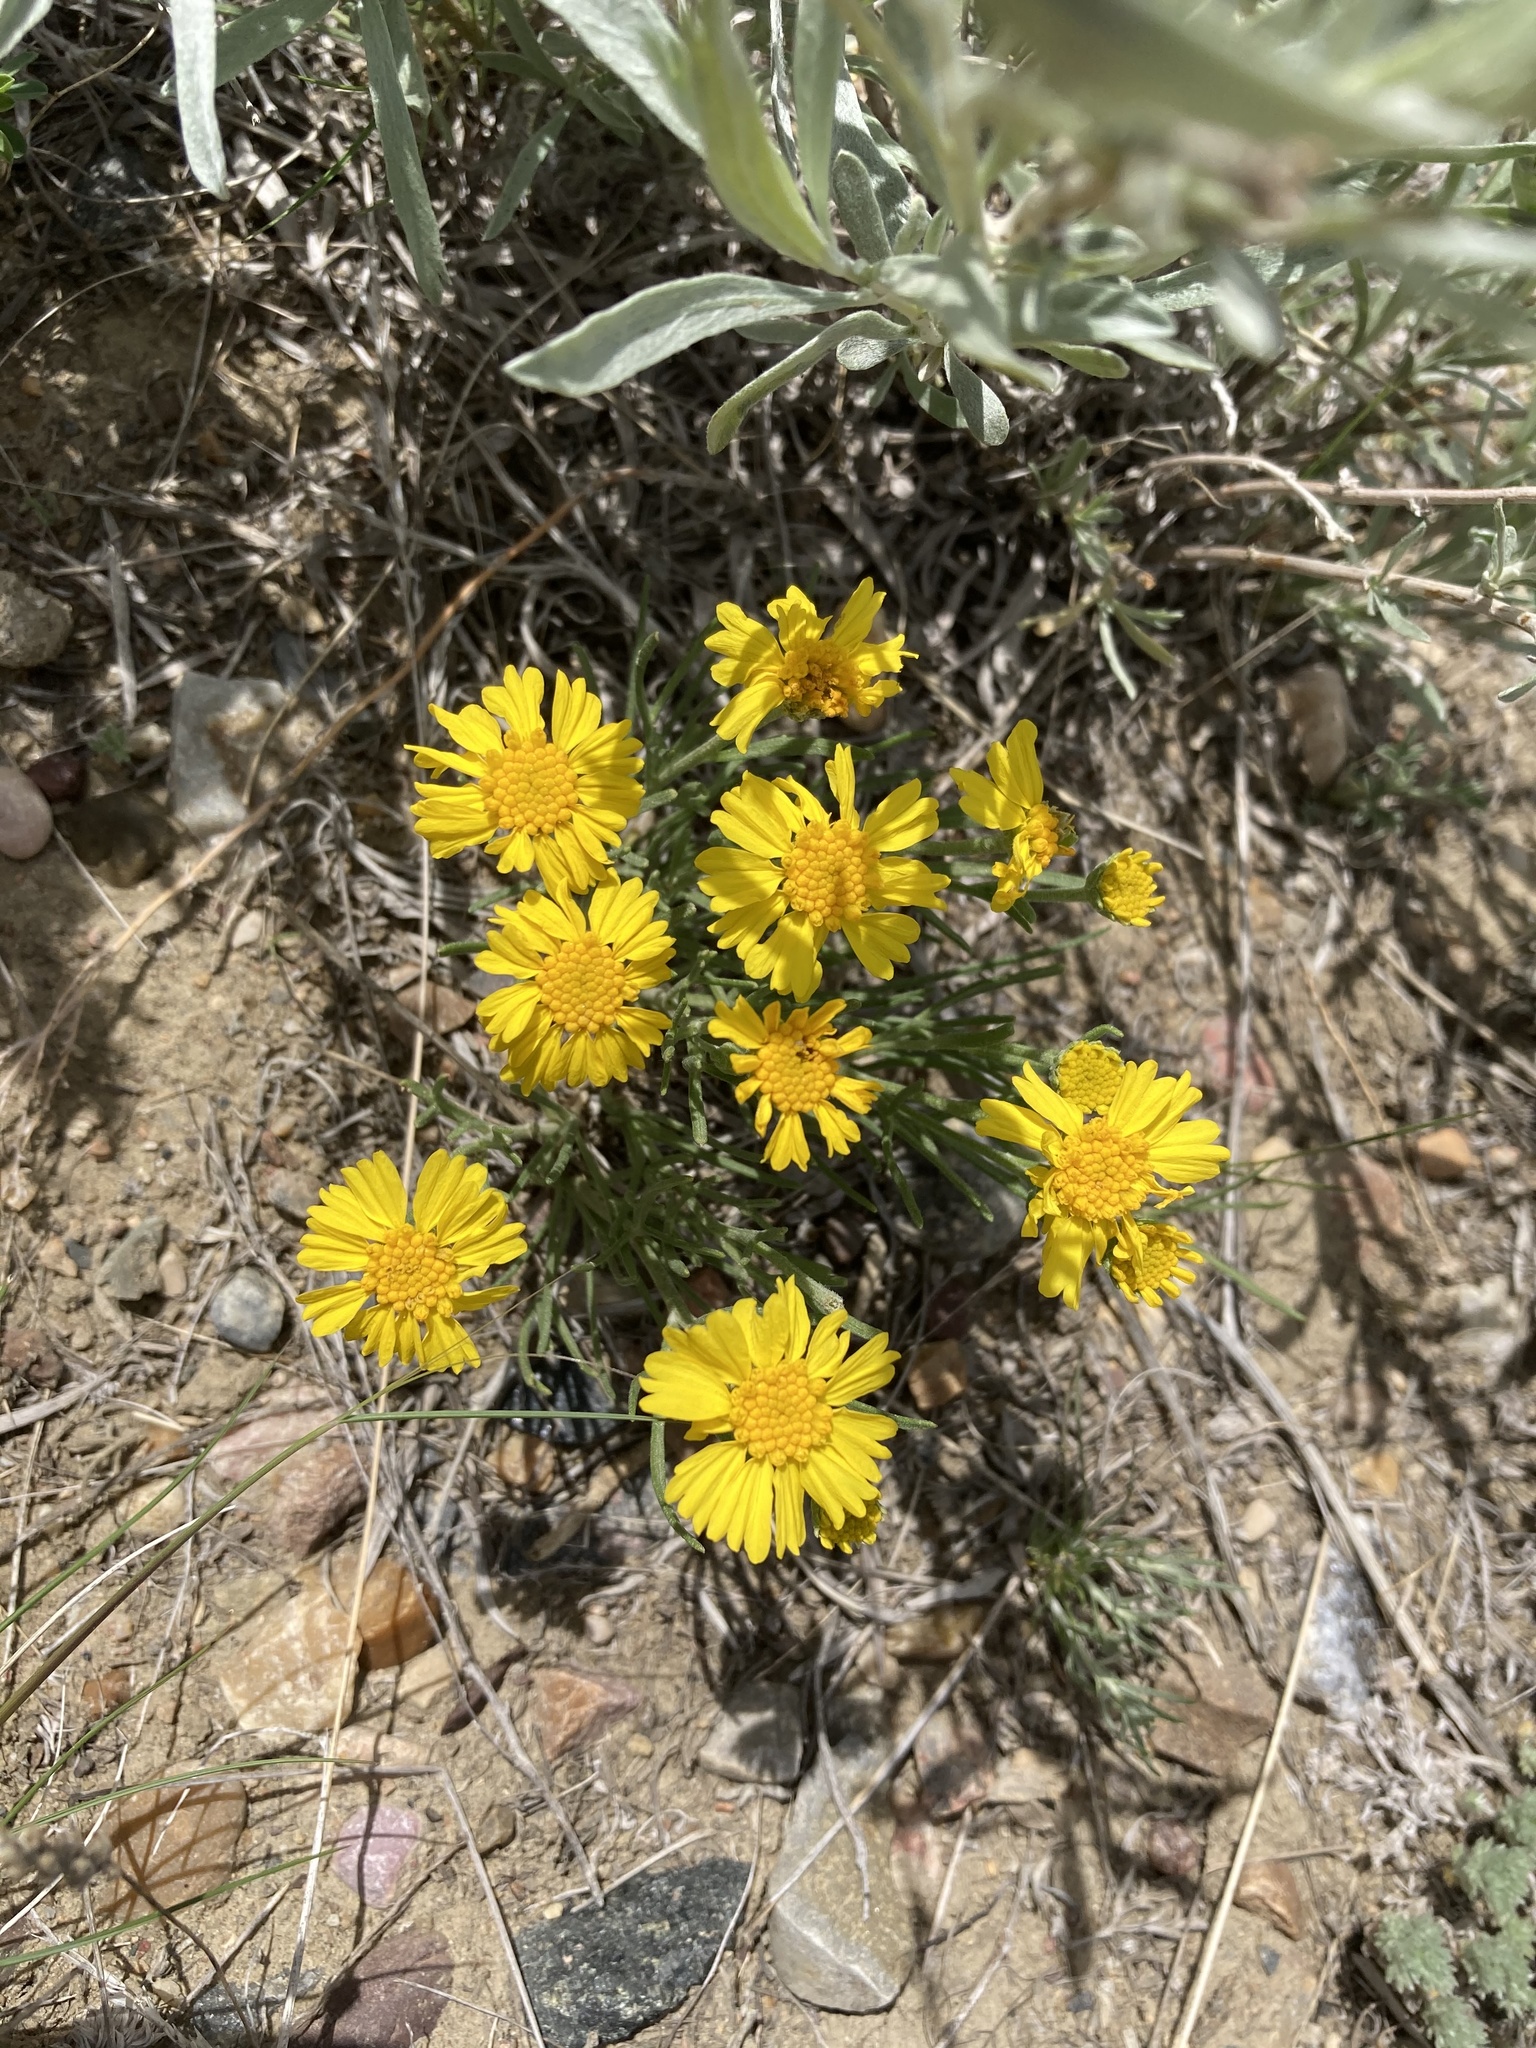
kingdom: Plantae
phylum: Tracheophyta
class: Magnoliopsida
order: Asterales
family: Asteraceae
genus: Hymenoxys
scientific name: Hymenoxys richardsonii
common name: Pingue rubberweed
